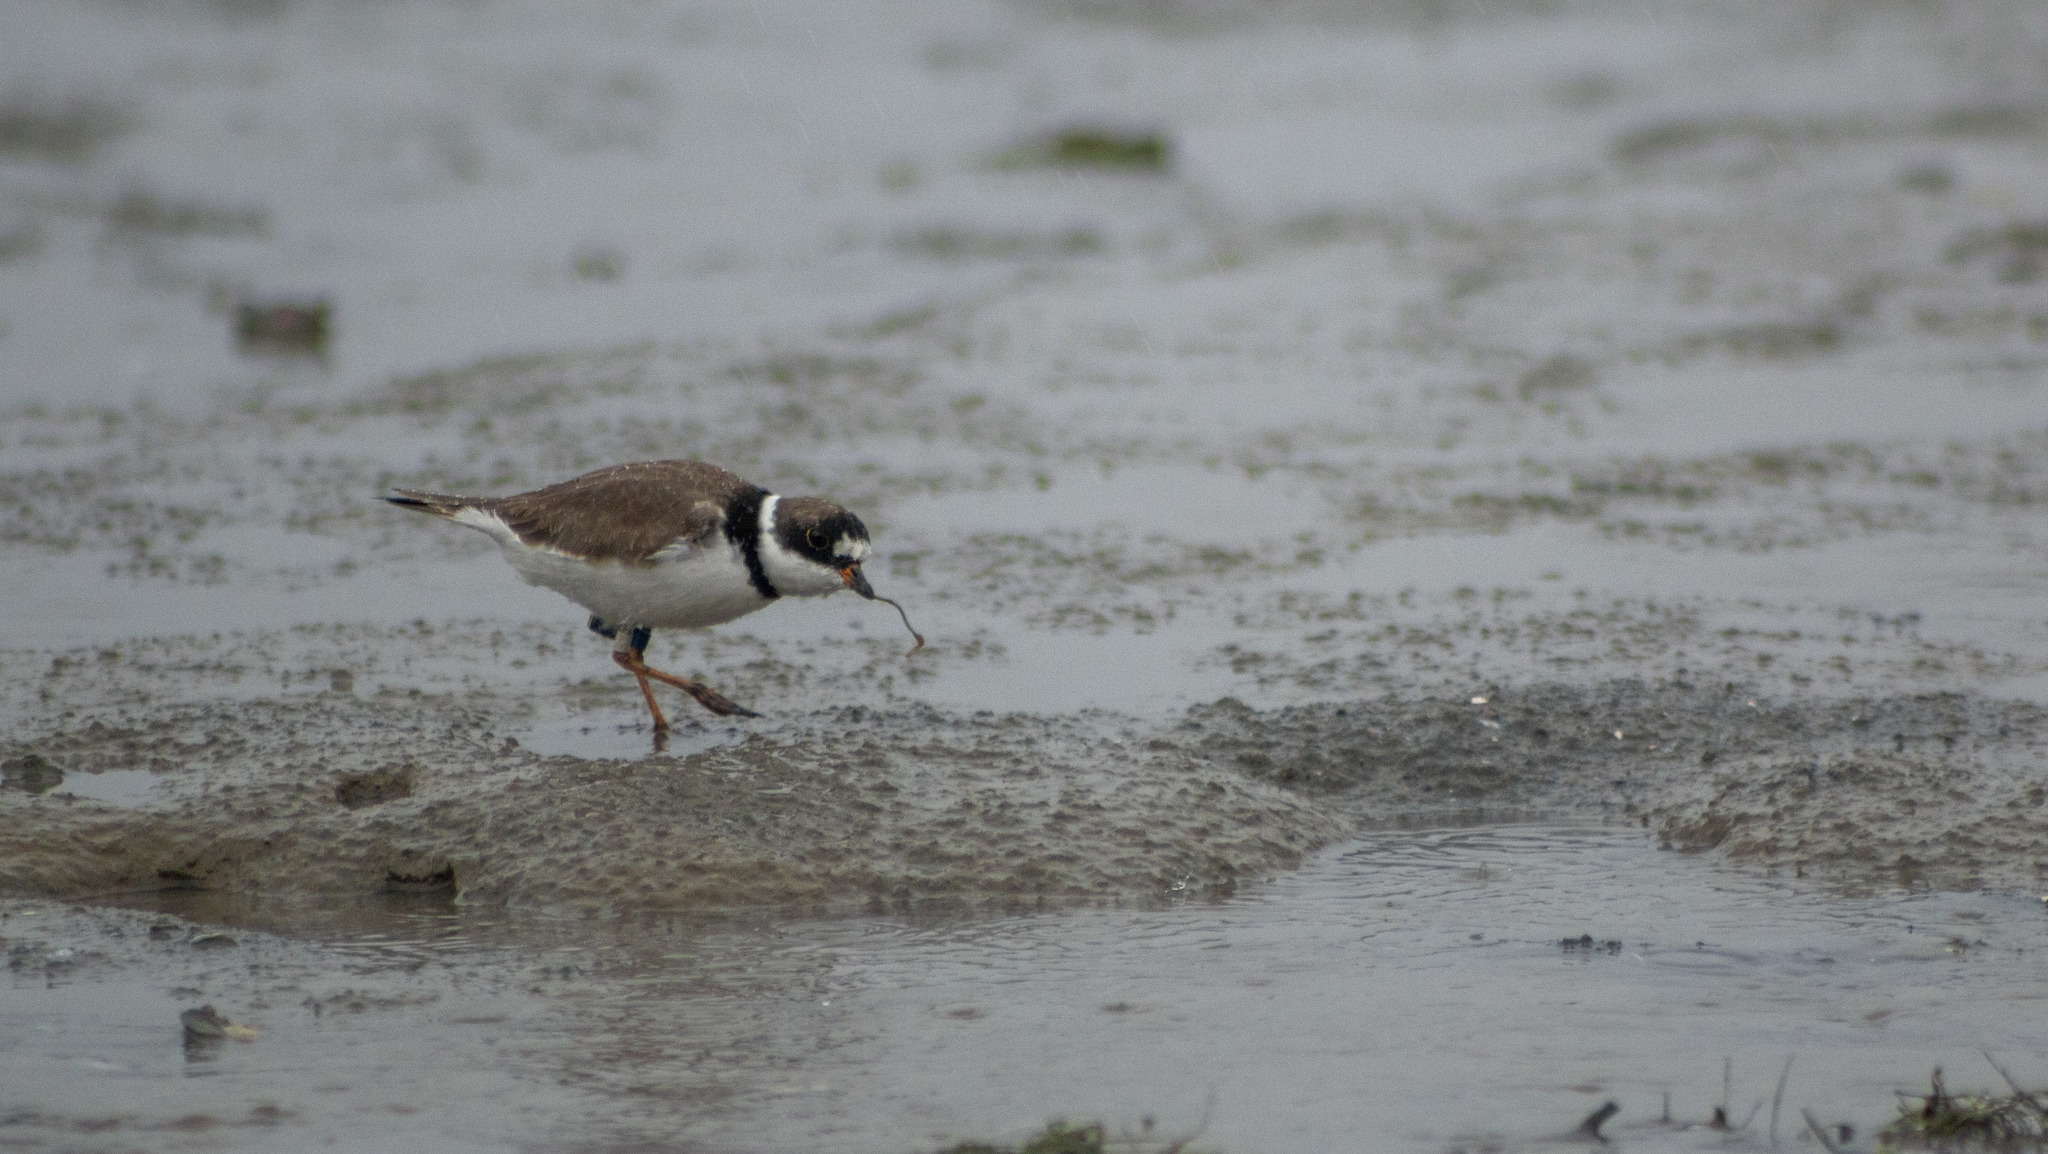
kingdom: Animalia
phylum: Chordata
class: Aves
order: Charadriiformes
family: Charadriidae
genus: Charadrius
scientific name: Charadrius semipalmatus
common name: Semipalmated plover
